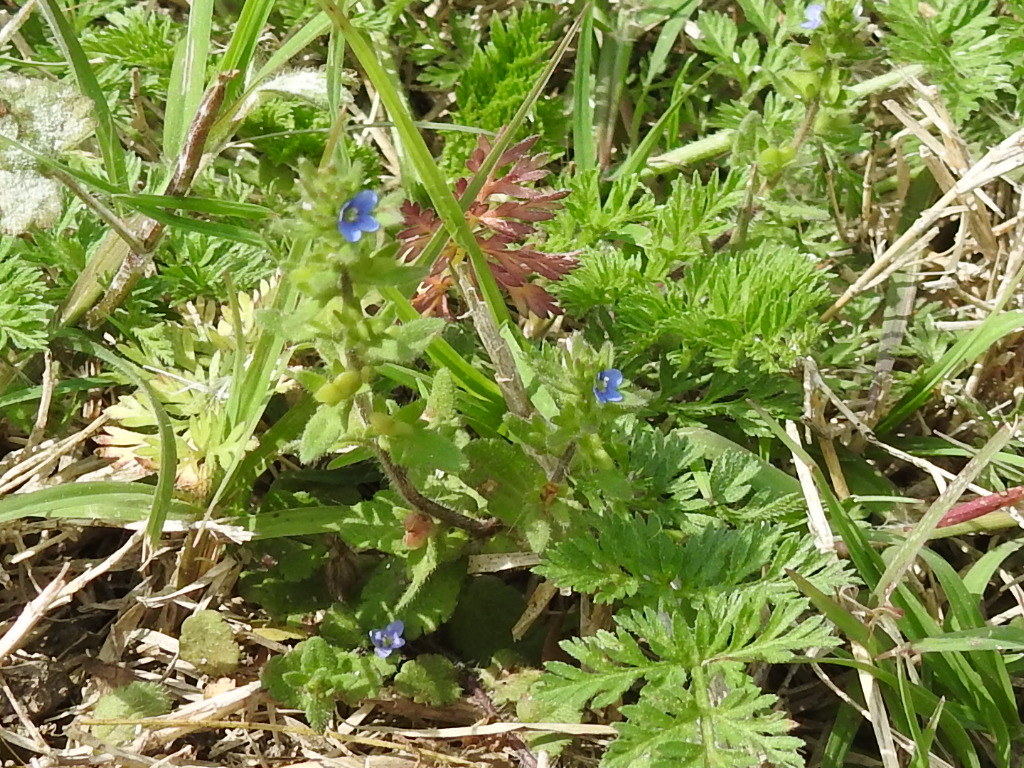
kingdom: Plantae
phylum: Tracheophyta
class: Magnoliopsida
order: Lamiales
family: Plantaginaceae
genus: Veronica
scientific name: Veronica arvensis
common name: Corn speedwell
